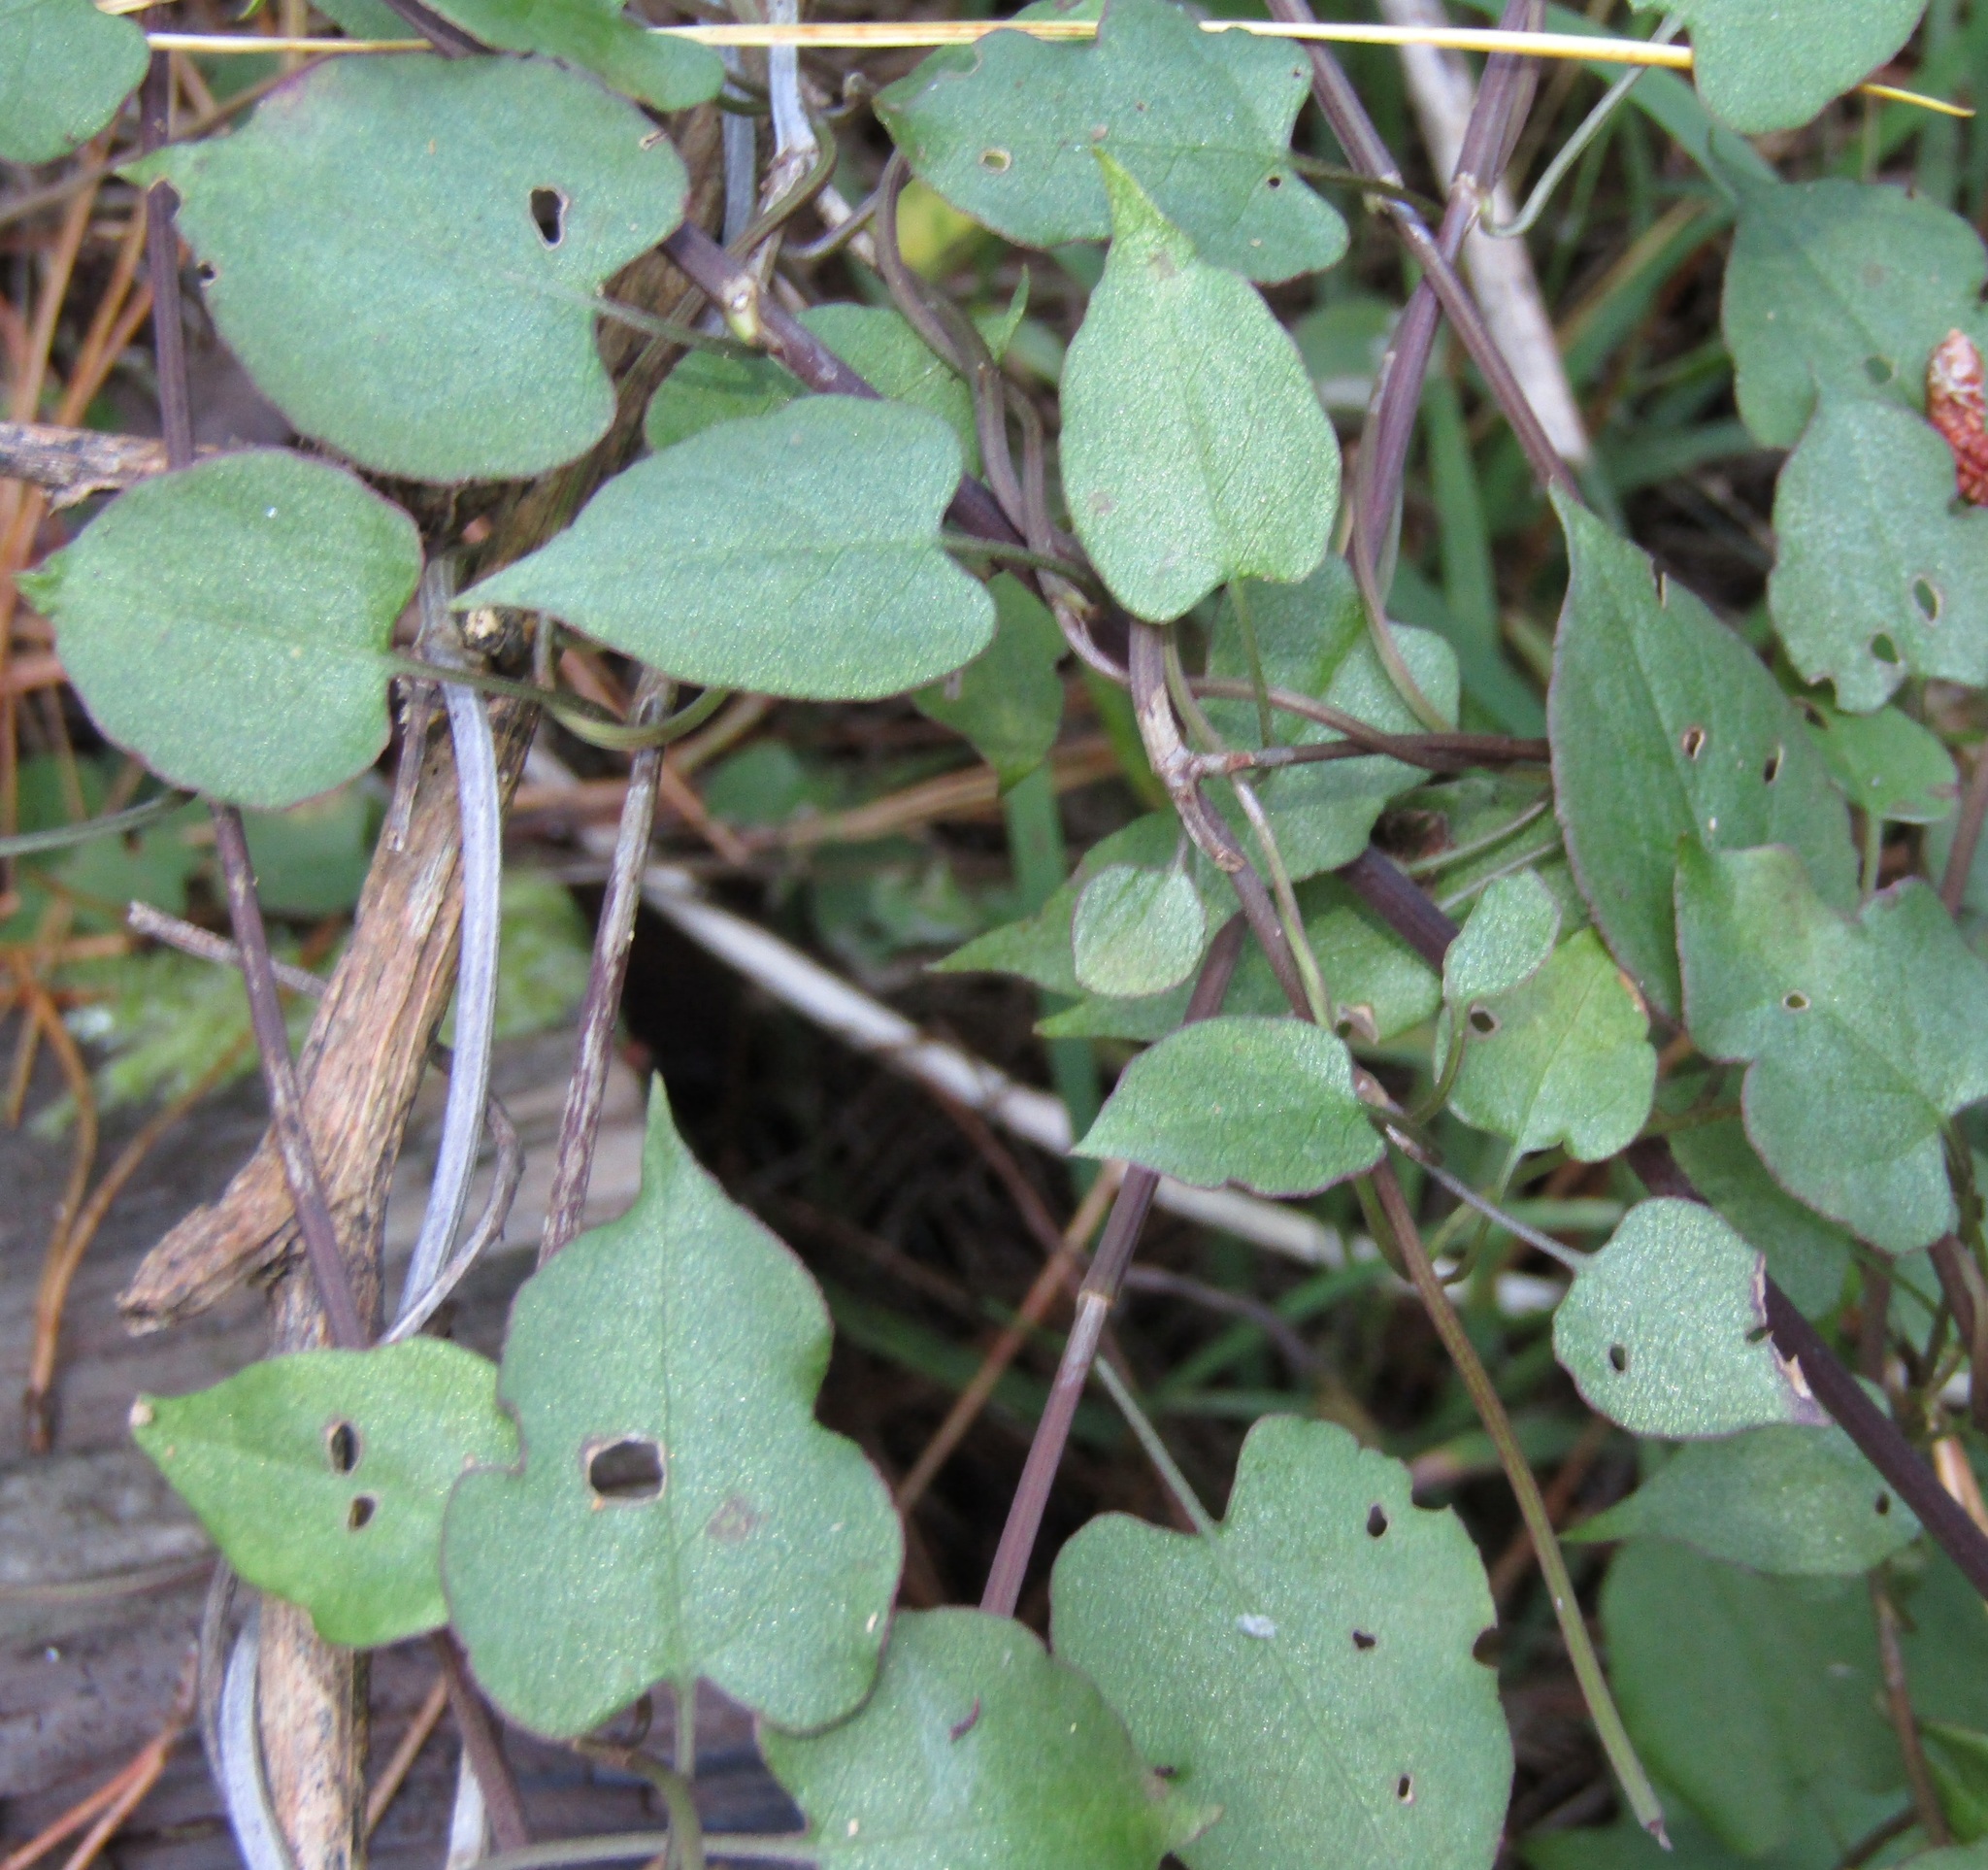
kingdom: Plantae
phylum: Tracheophyta
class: Magnoliopsida
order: Caryophyllales
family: Polygonaceae
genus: Muehlenbeckia
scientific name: Muehlenbeckia australis
